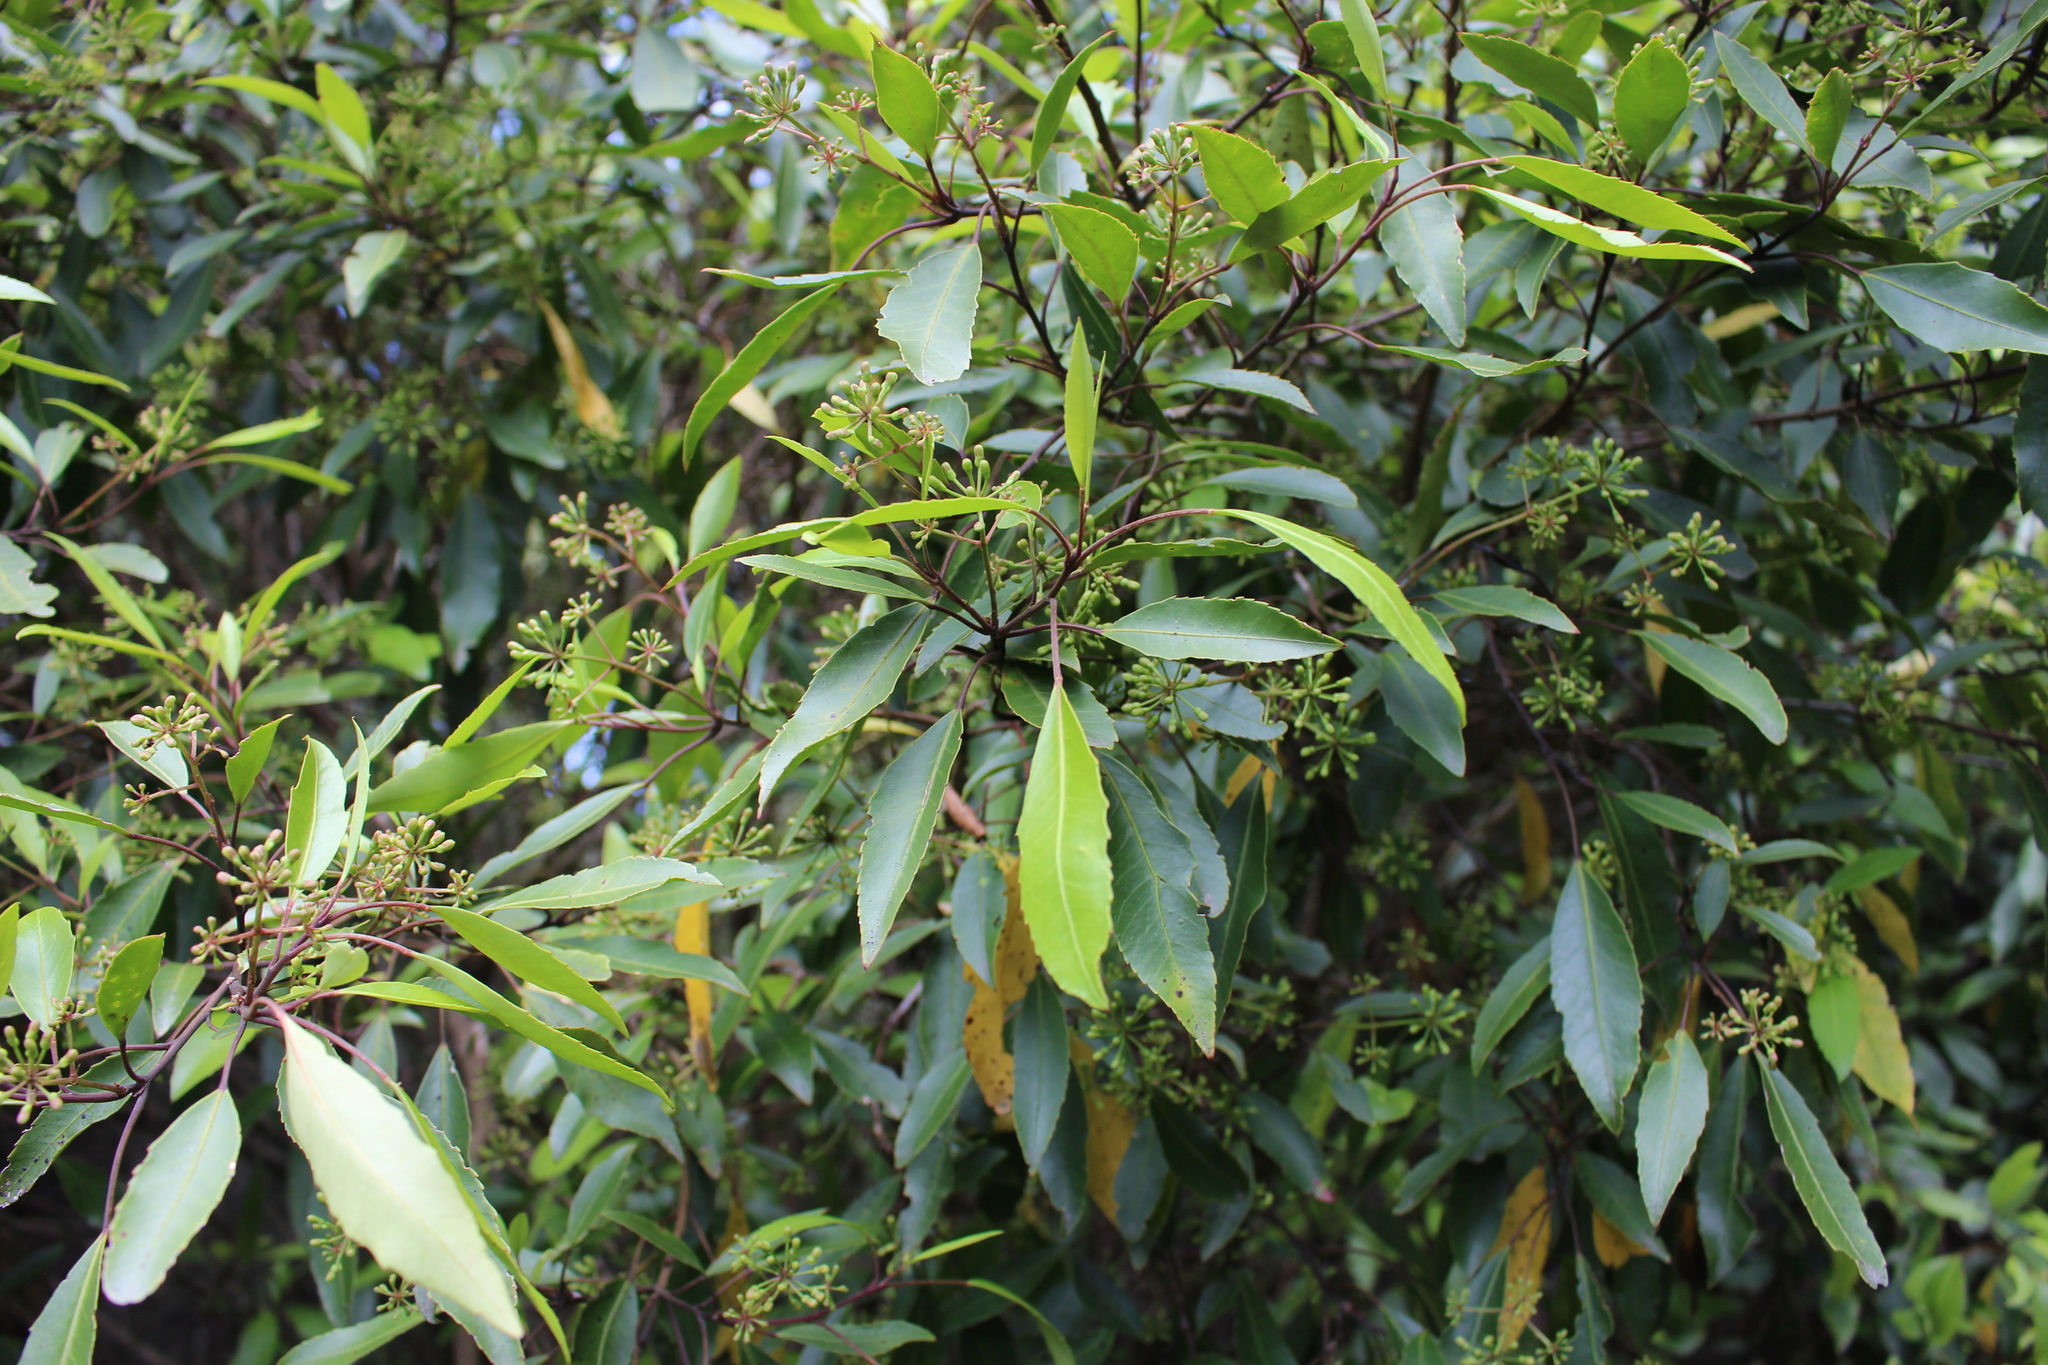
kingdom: Plantae
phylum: Tracheophyta
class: Magnoliopsida
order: Apiales
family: Araliaceae
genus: Raukaua
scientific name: Raukaua simplex
